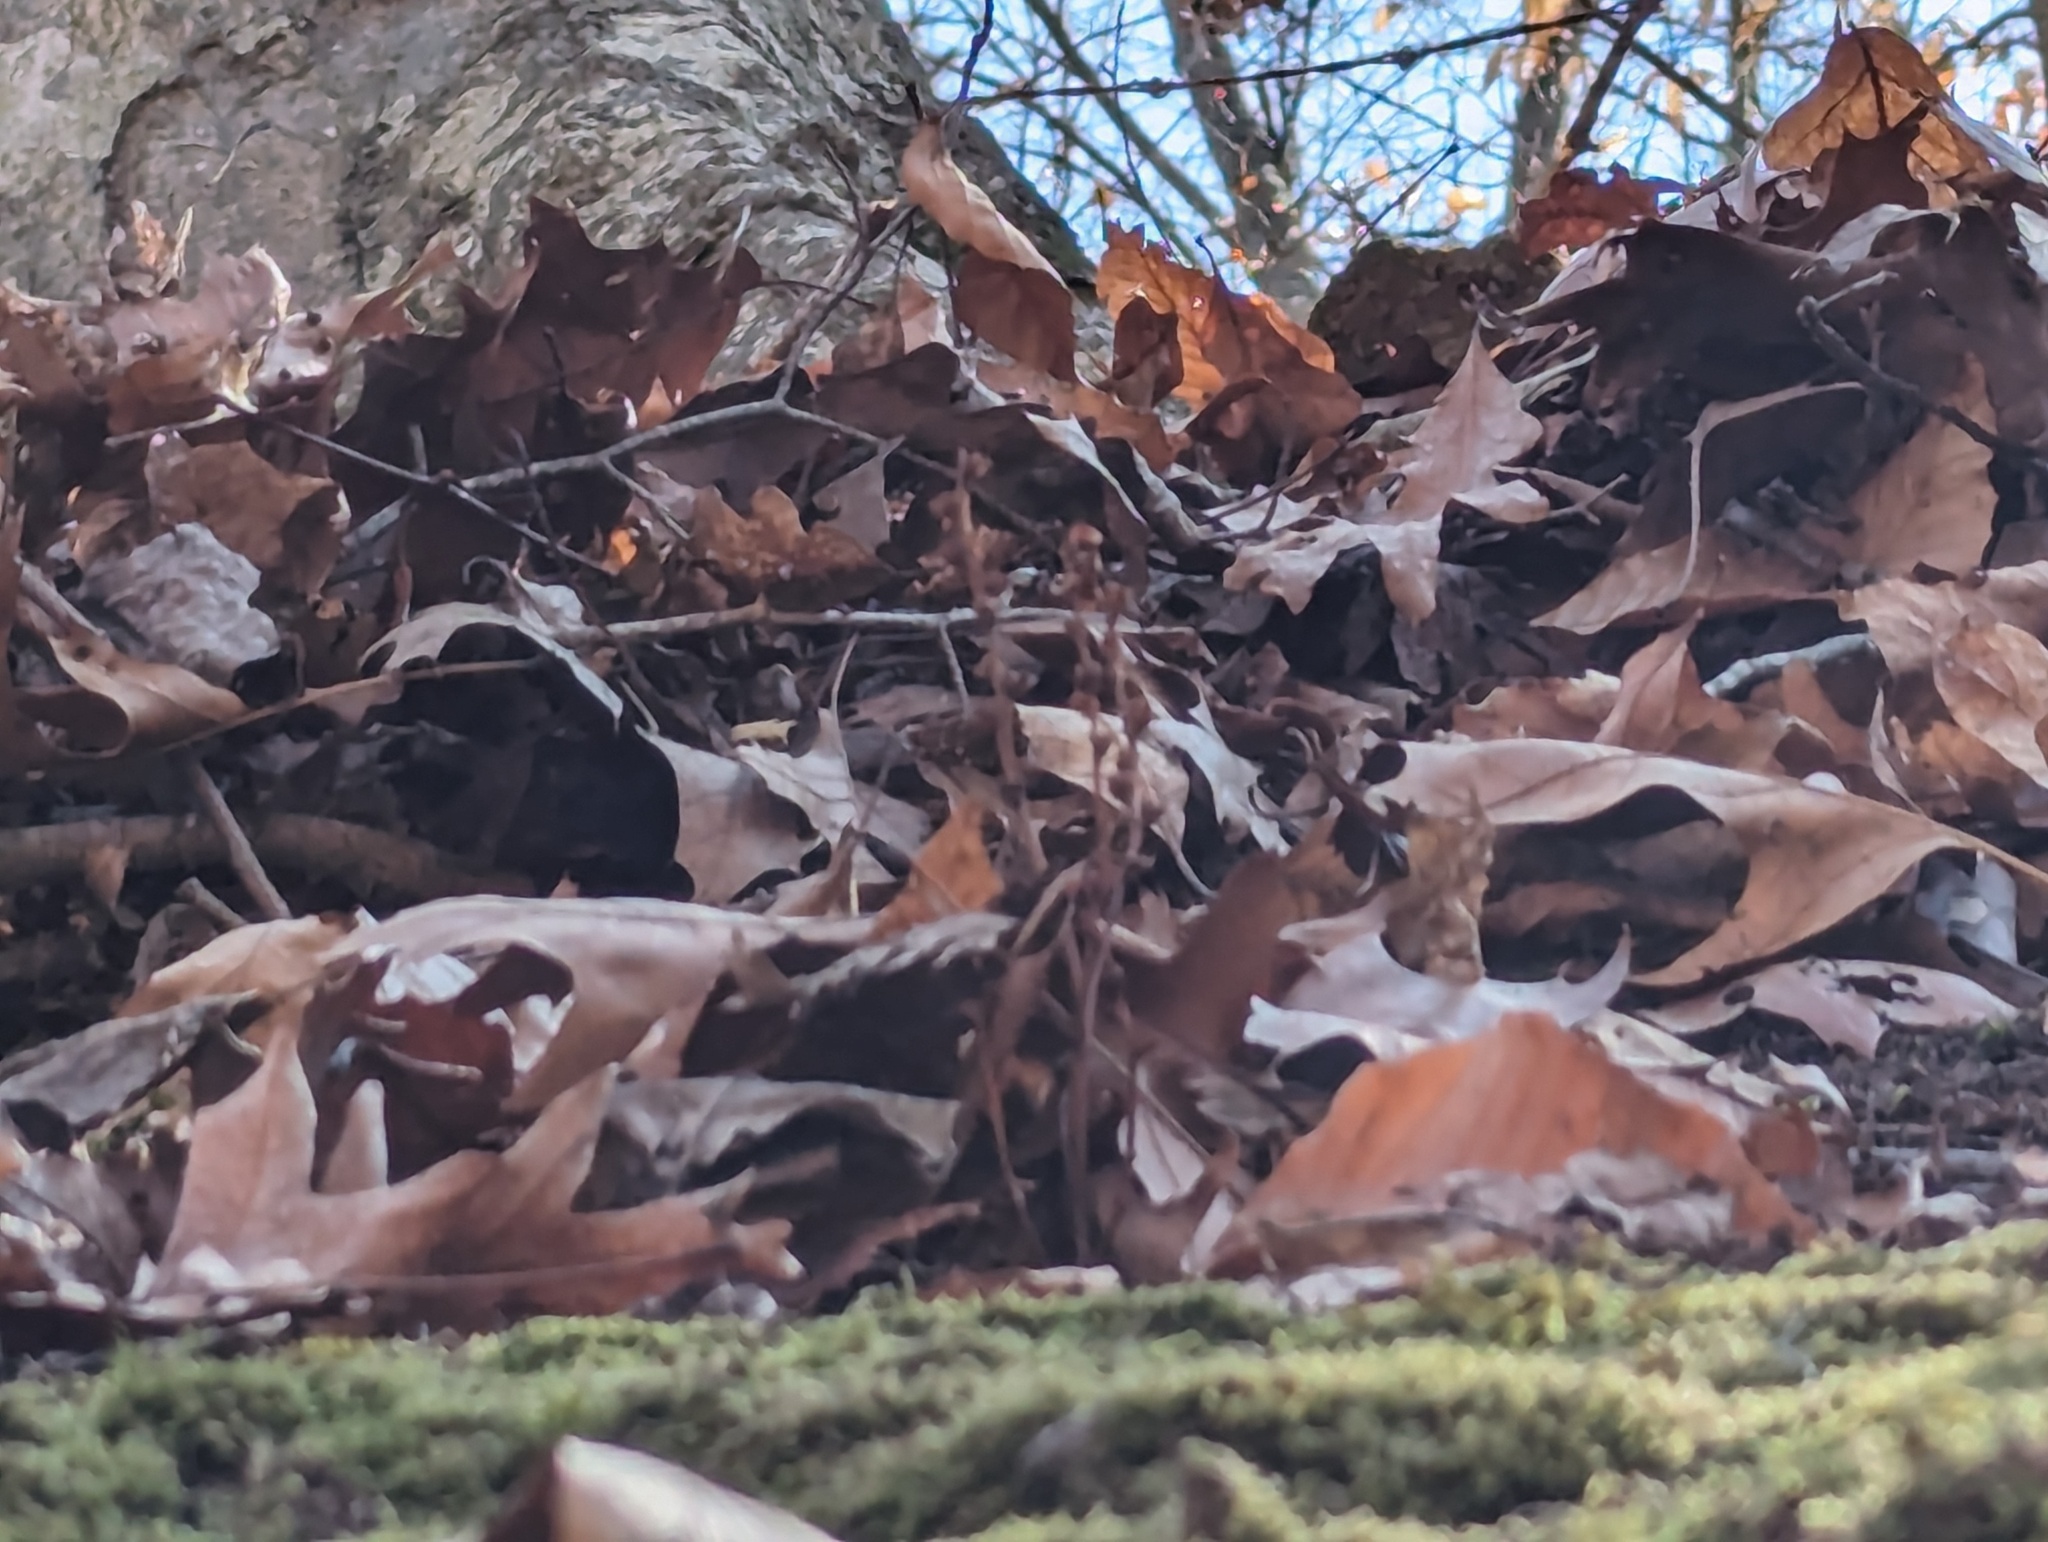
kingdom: Plantae
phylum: Tracheophyta
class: Magnoliopsida
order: Lamiales
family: Orobanchaceae
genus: Epifagus
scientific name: Epifagus virginiana
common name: Beechdrops
